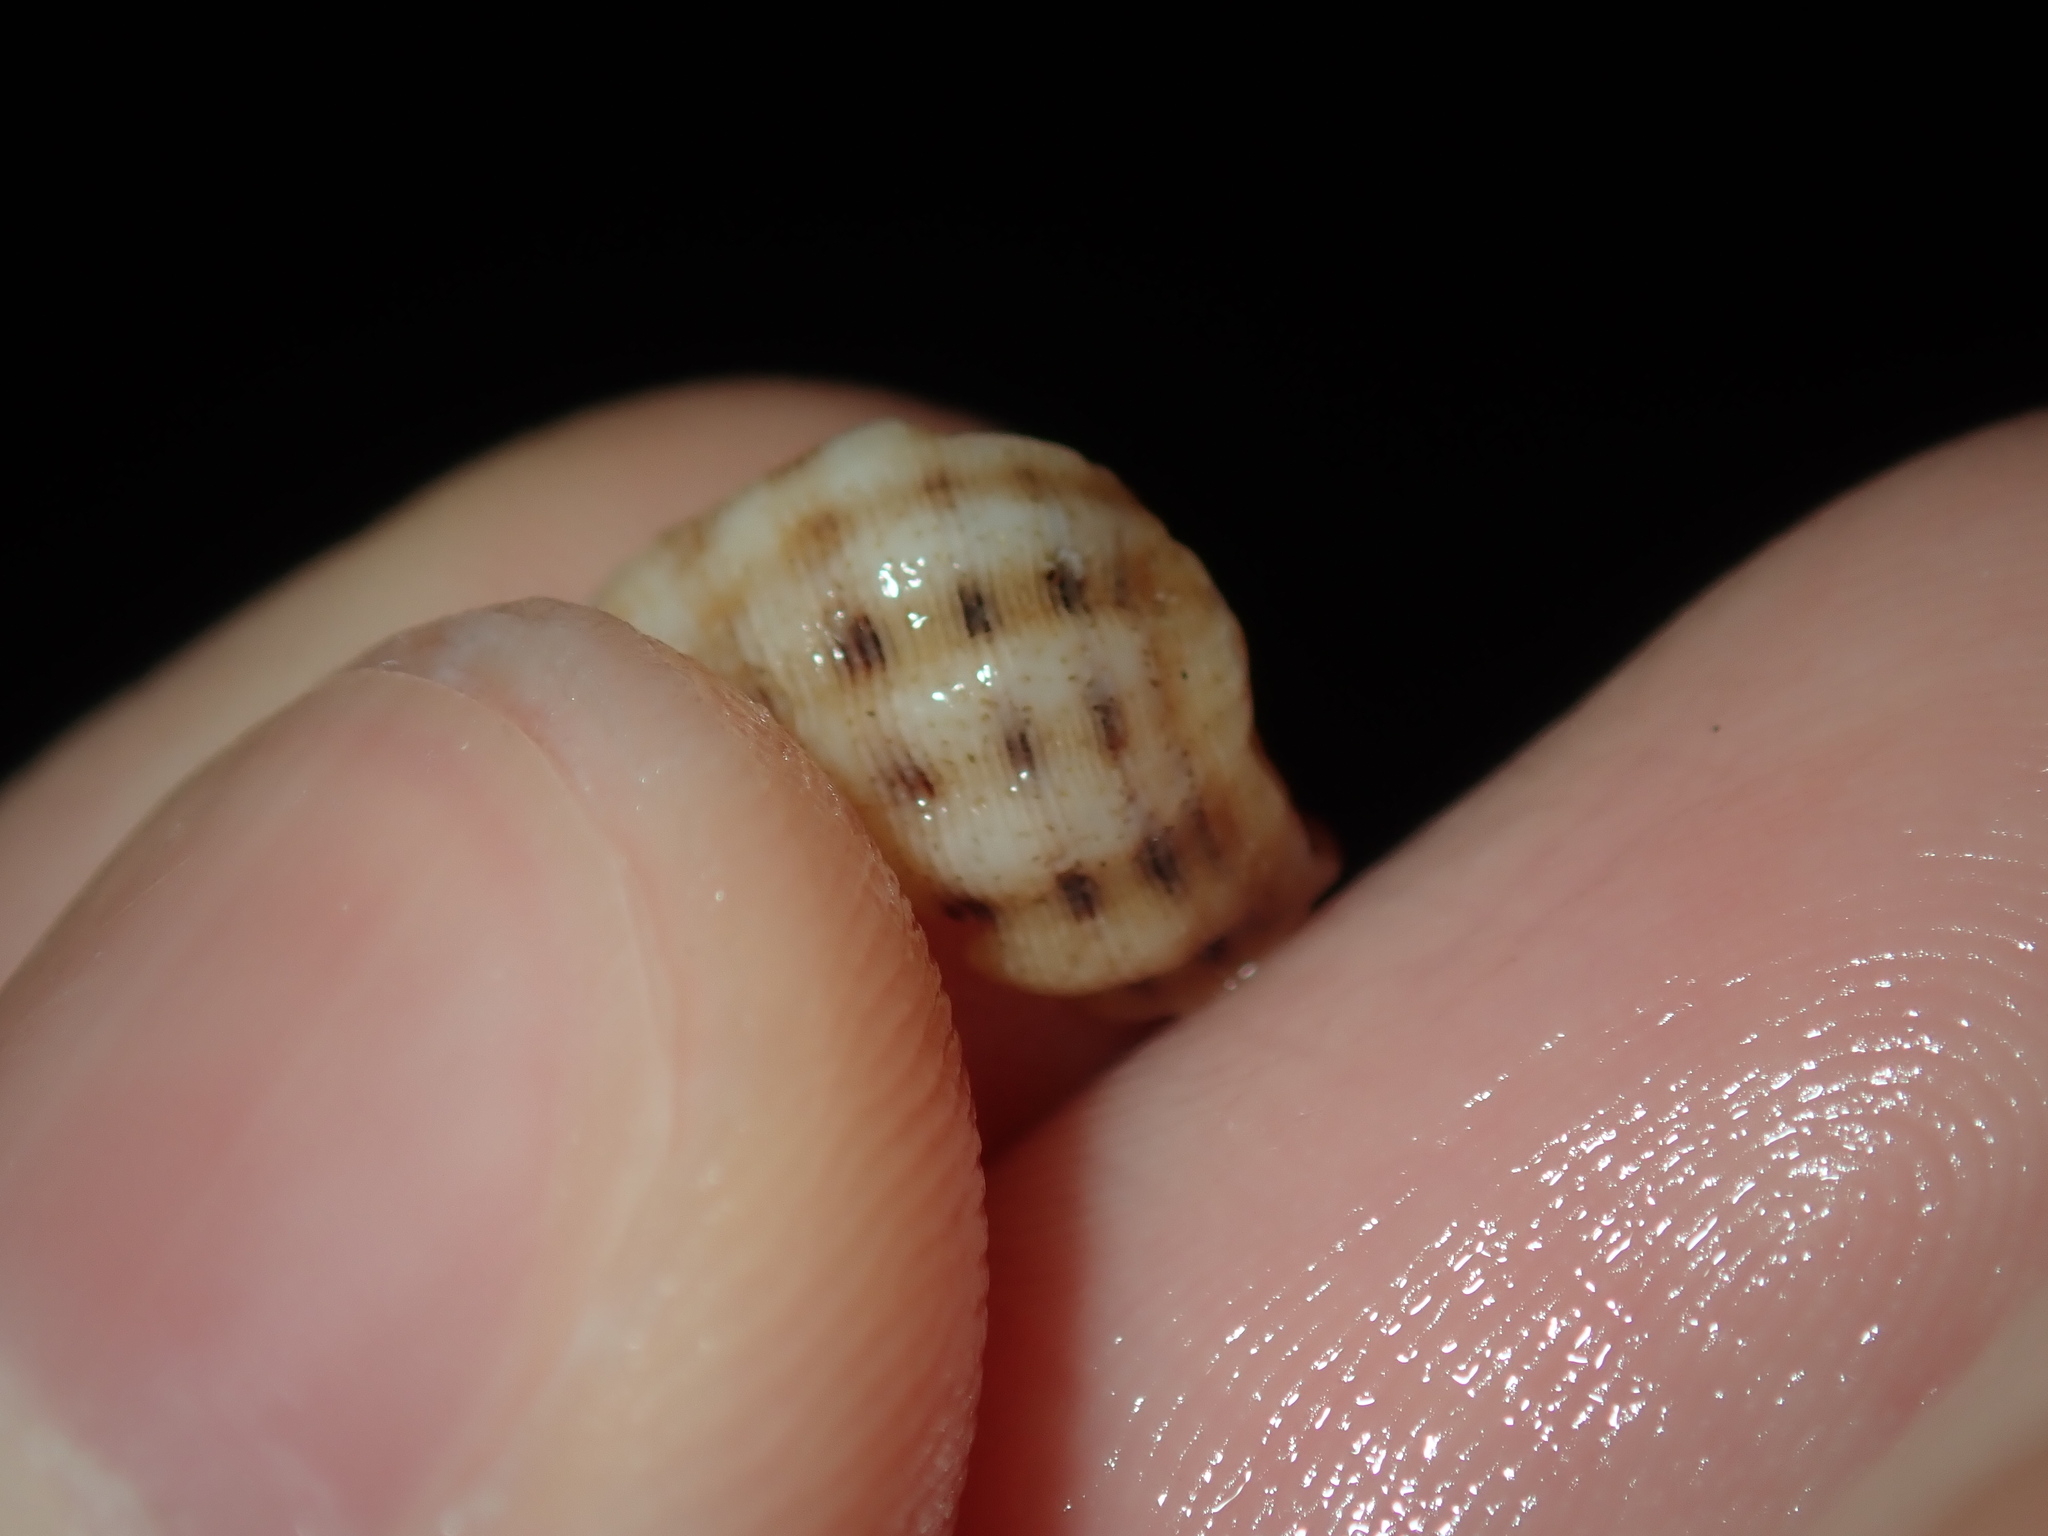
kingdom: Animalia
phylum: Mollusca
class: Gastropoda
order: Neogastropoda
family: Muricidae
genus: Agnewia
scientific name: Agnewia tritoniformis
